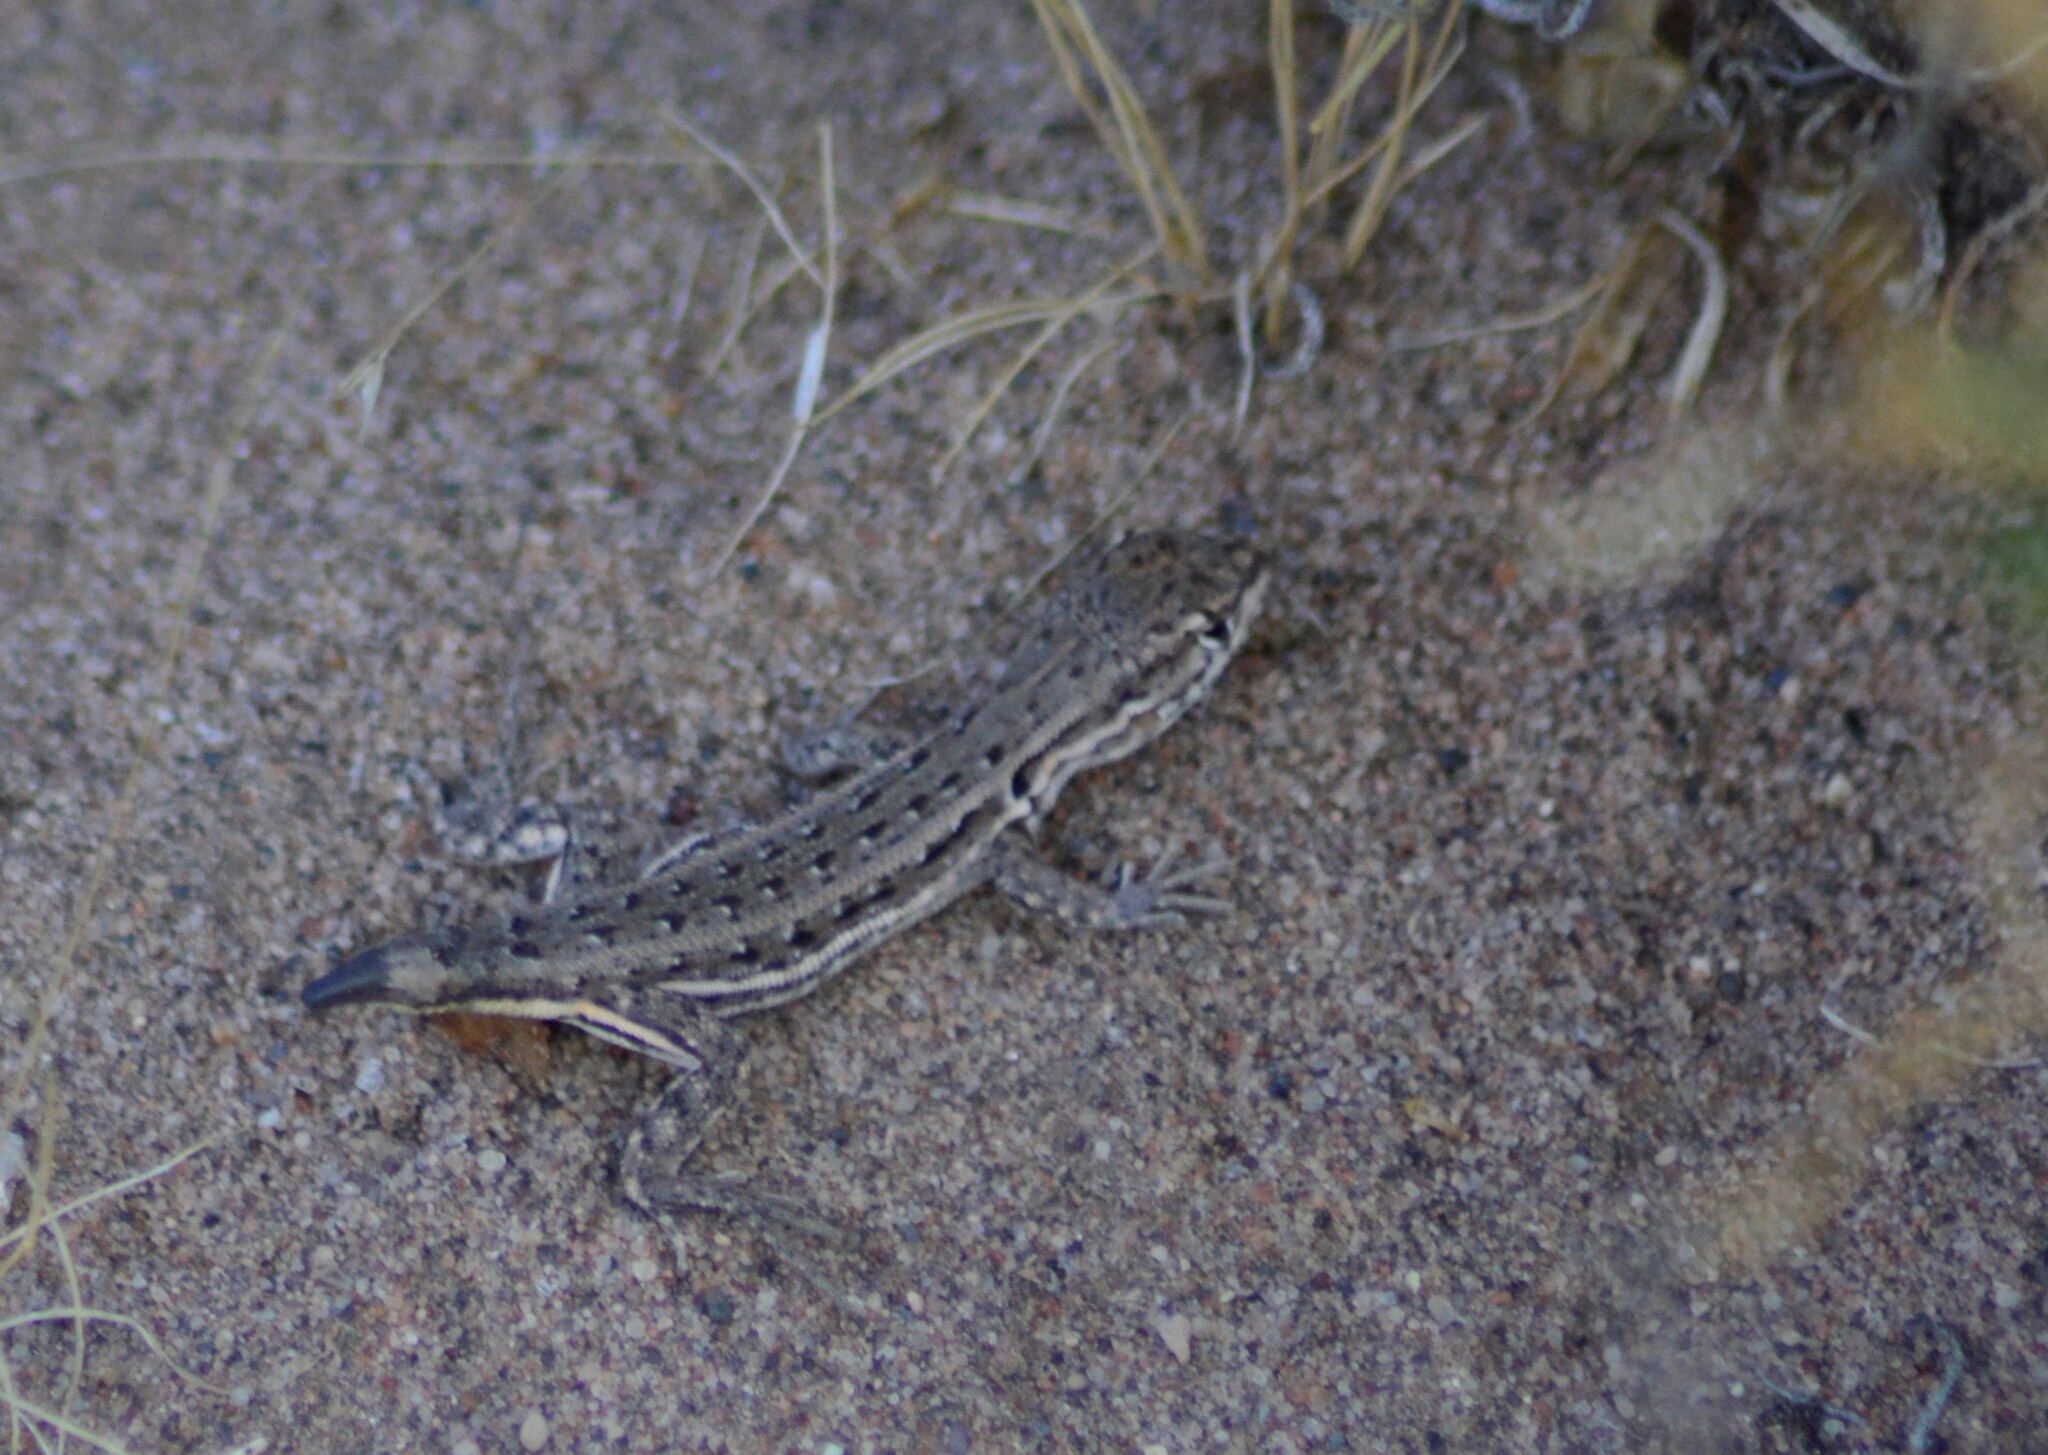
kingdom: Animalia
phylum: Chordata
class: Squamata
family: Liolaemidae
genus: Liolaemus
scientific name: Liolaemus darwinii
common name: Darwin's tree iguana
